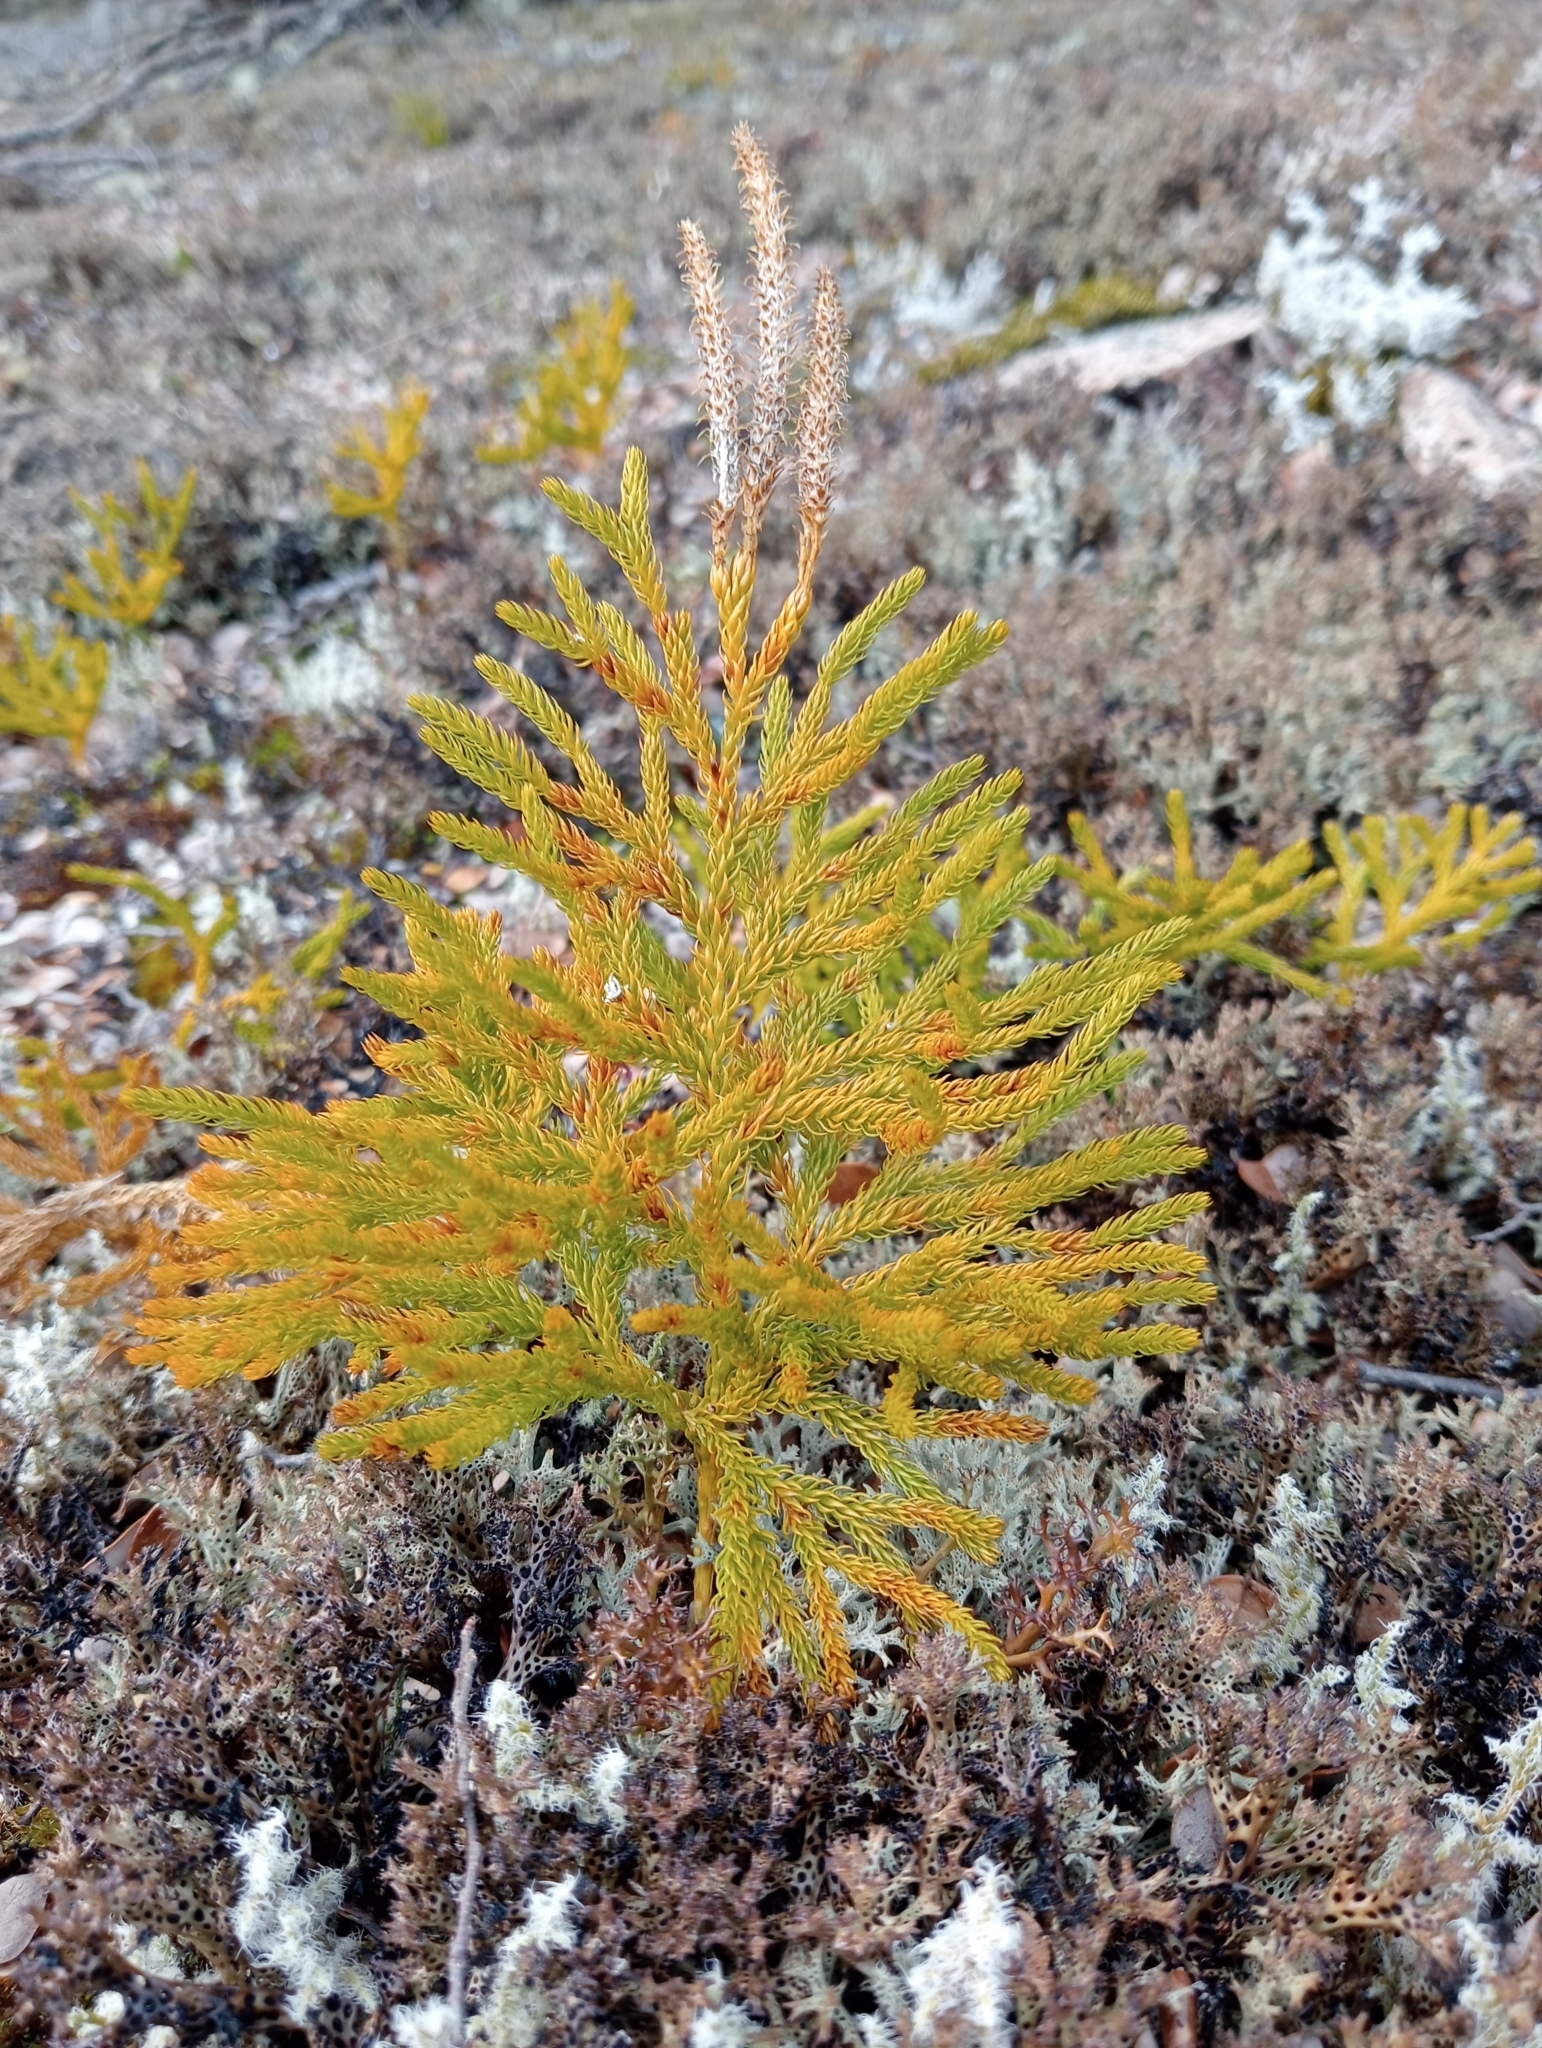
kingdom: Plantae
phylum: Tracheophyta
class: Lycopodiopsida
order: Lycopodiales
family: Lycopodiaceae
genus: Austrolycopodium
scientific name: Austrolycopodium fastigiatum
